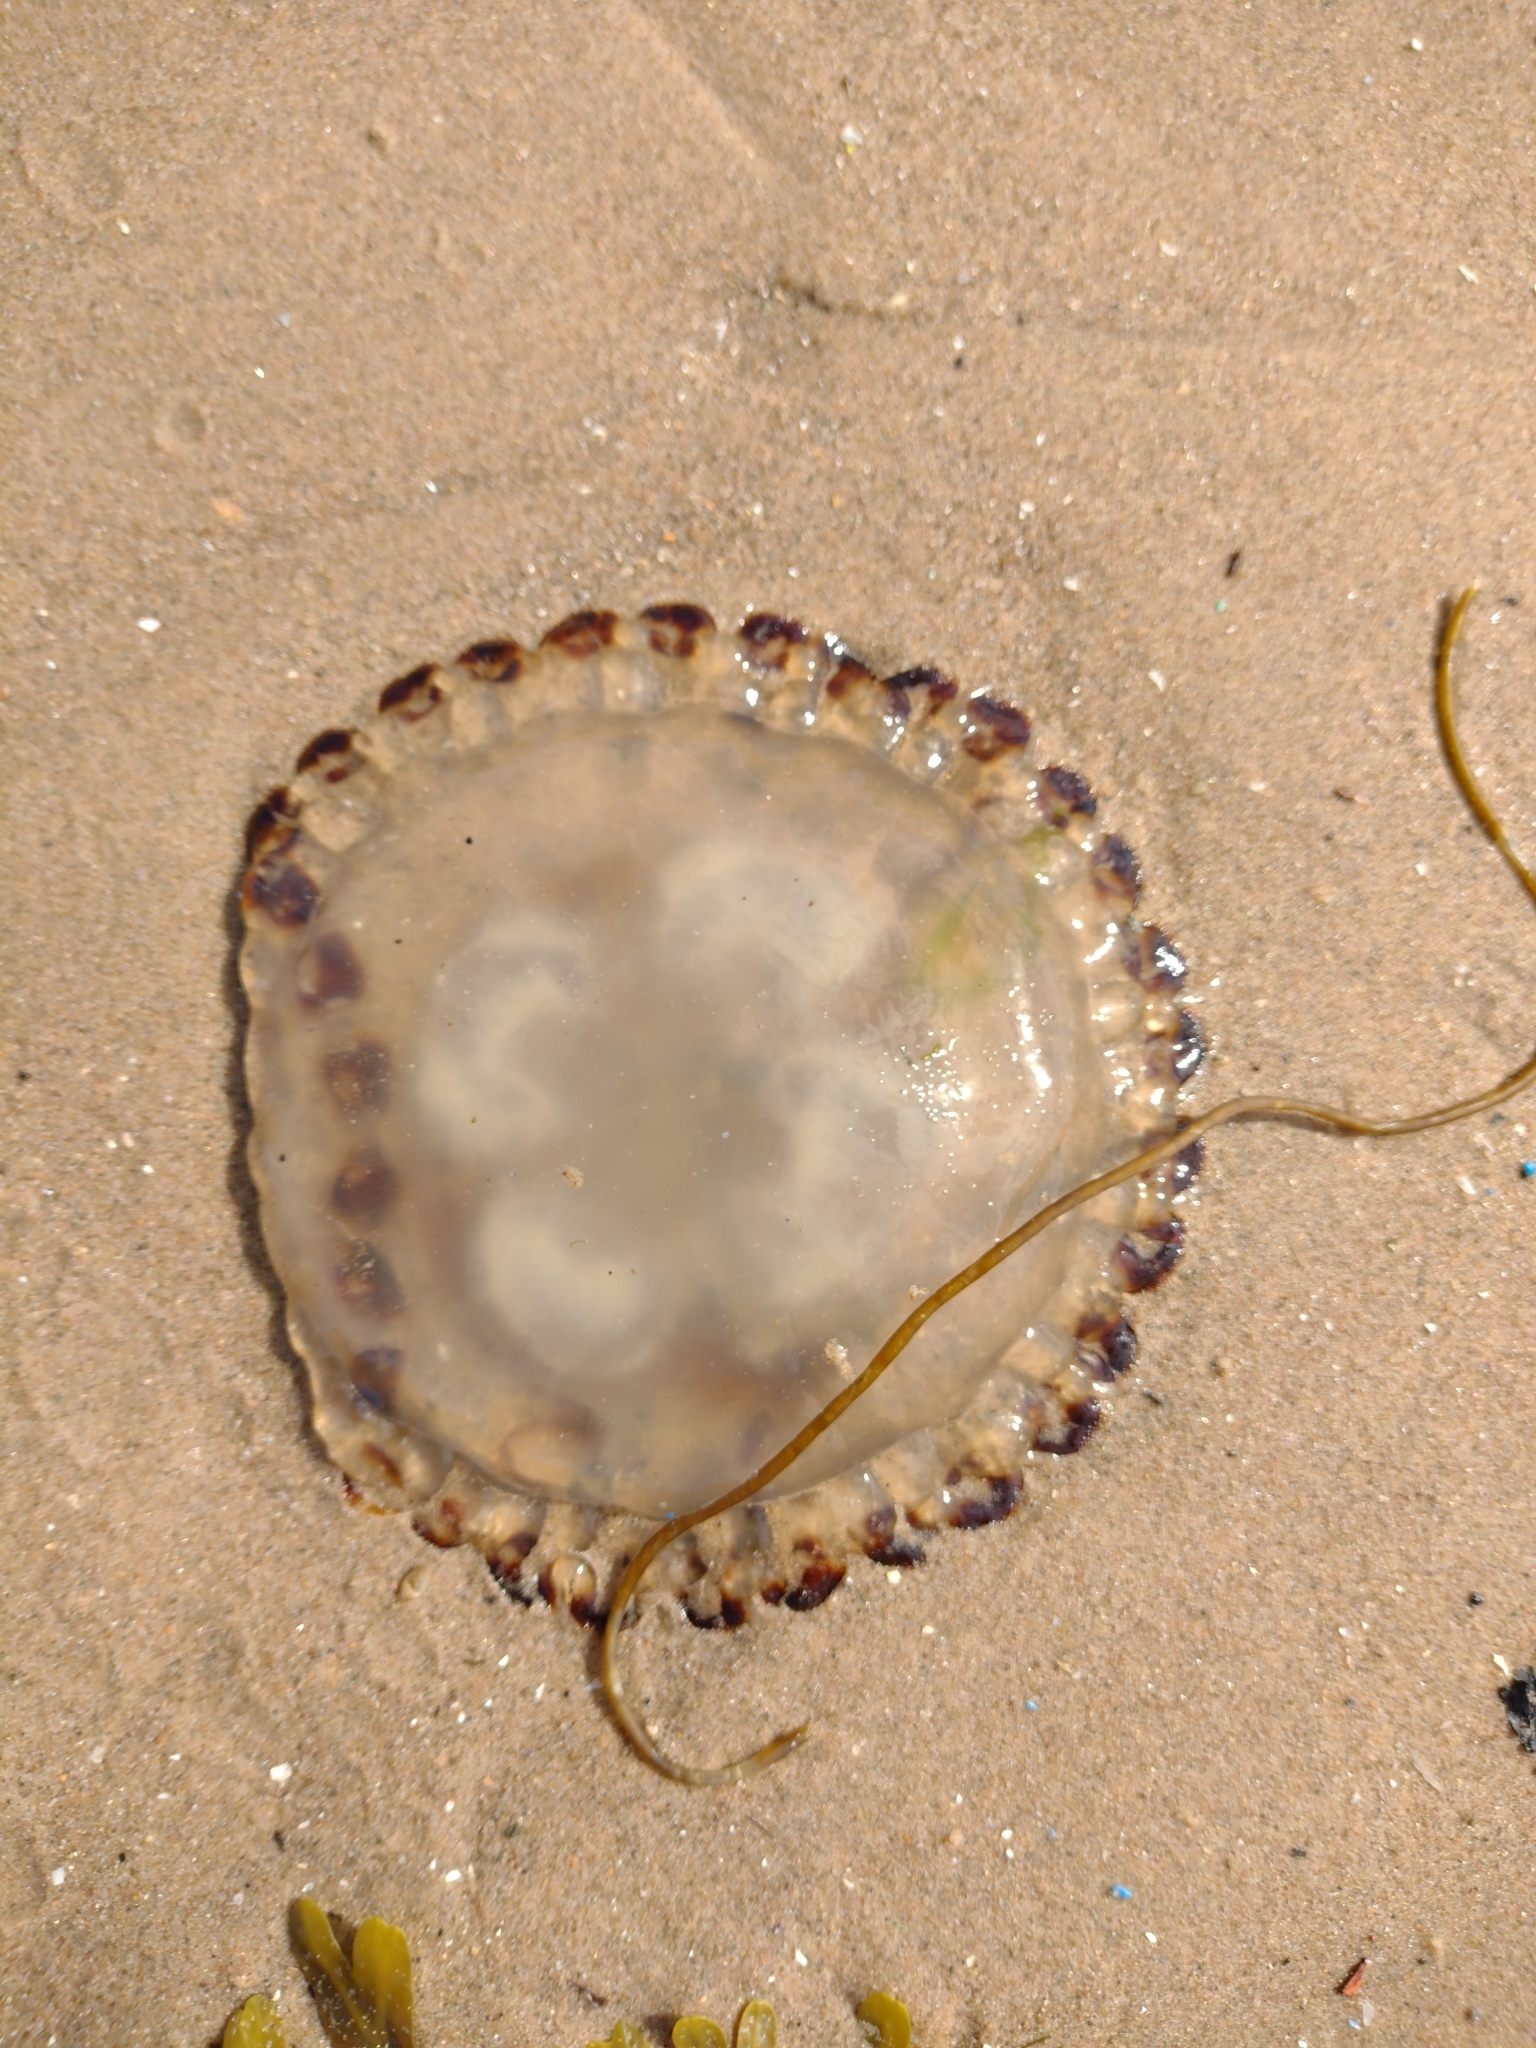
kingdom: Animalia
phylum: Cnidaria
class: Scyphozoa
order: Semaeostomeae
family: Pelagiidae
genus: Chrysaora
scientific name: Chrysaora hysoscella
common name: Compass jellyfish
